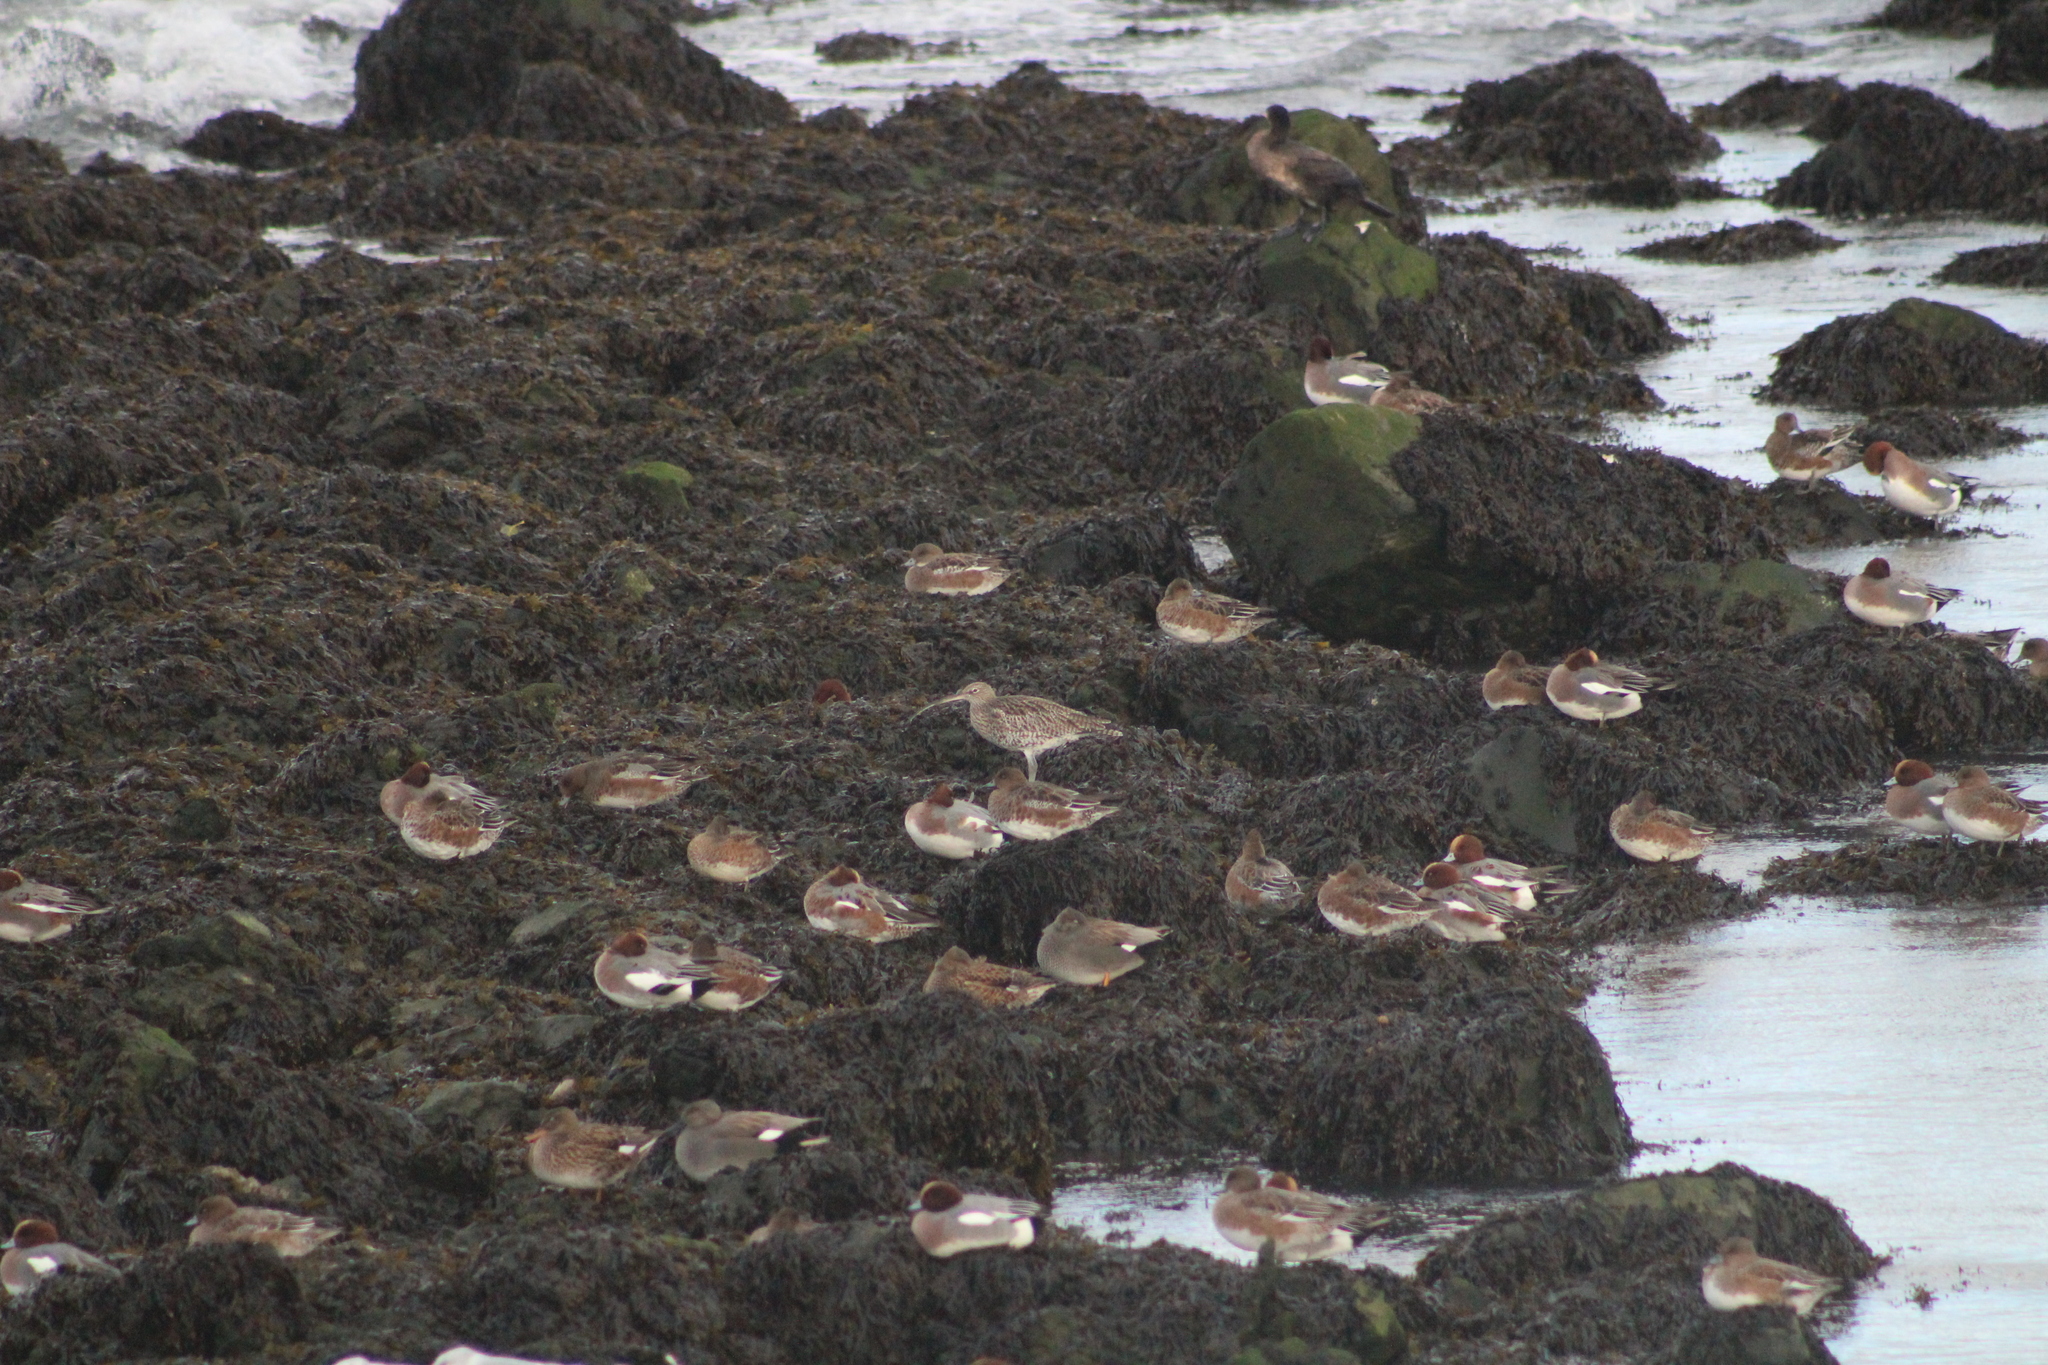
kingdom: Animalia
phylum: Chordata
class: Aves
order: Charadriiformes
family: Scolopacidae
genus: Numenius
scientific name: Numenius arquata
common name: Eurasian curlew
